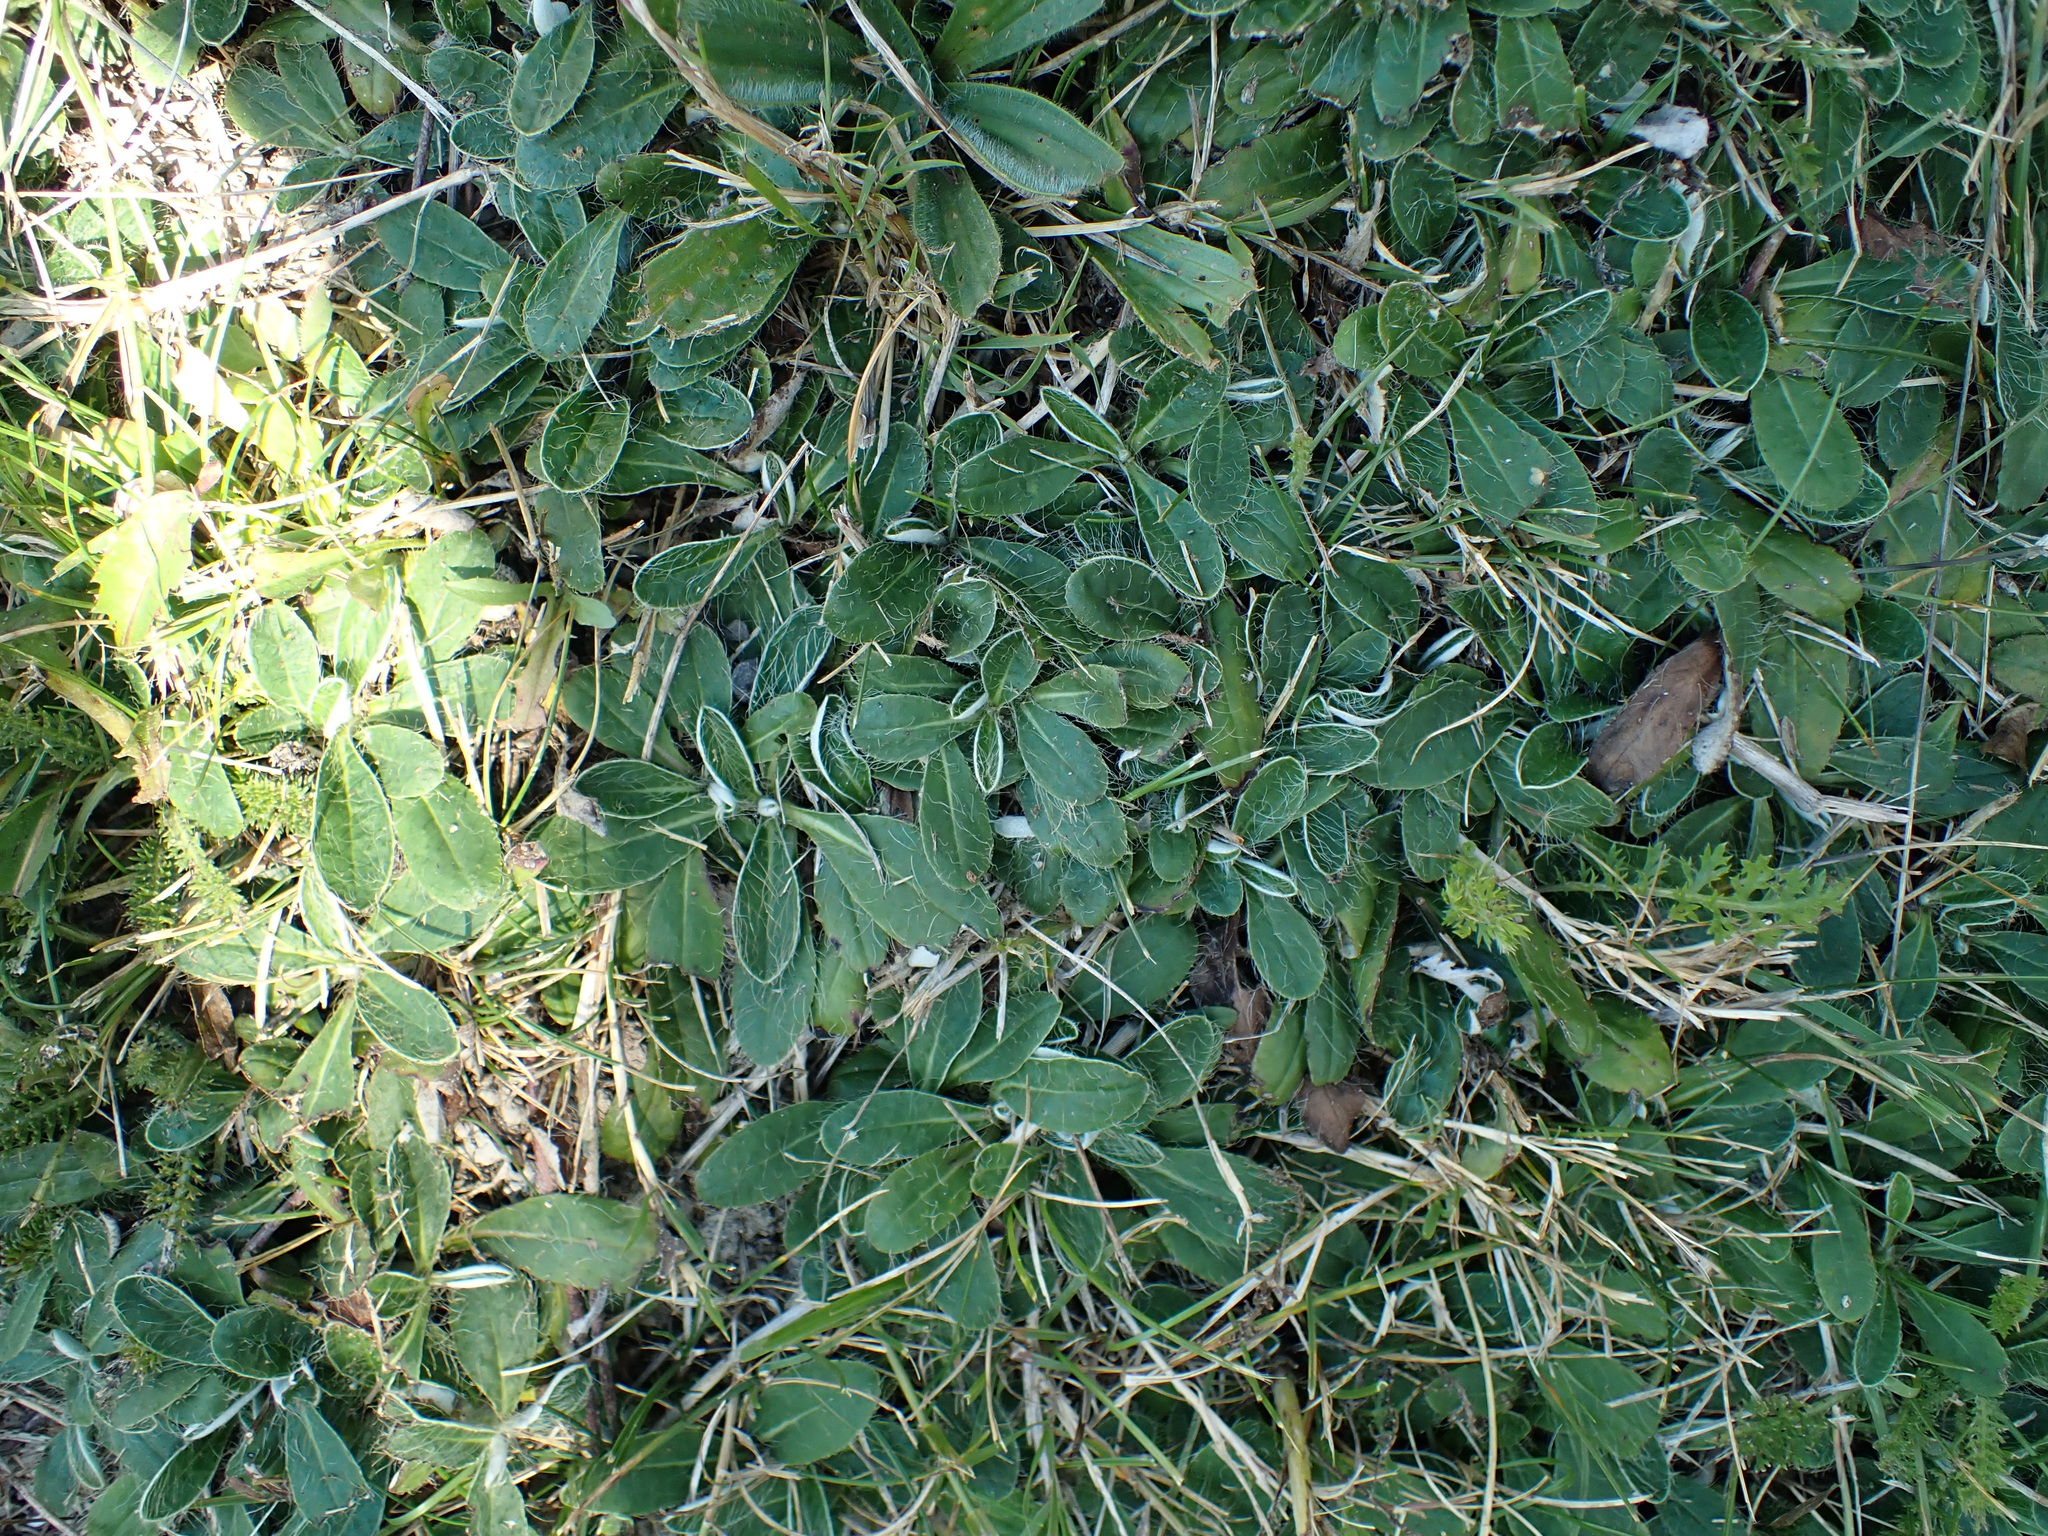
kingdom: Plantae
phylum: Tracheophyta
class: Magnoliopsida
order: Asterales
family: Asteraceae
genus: Pilosella
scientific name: Pilosella officinarum
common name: Mouse-ear hawkweed
